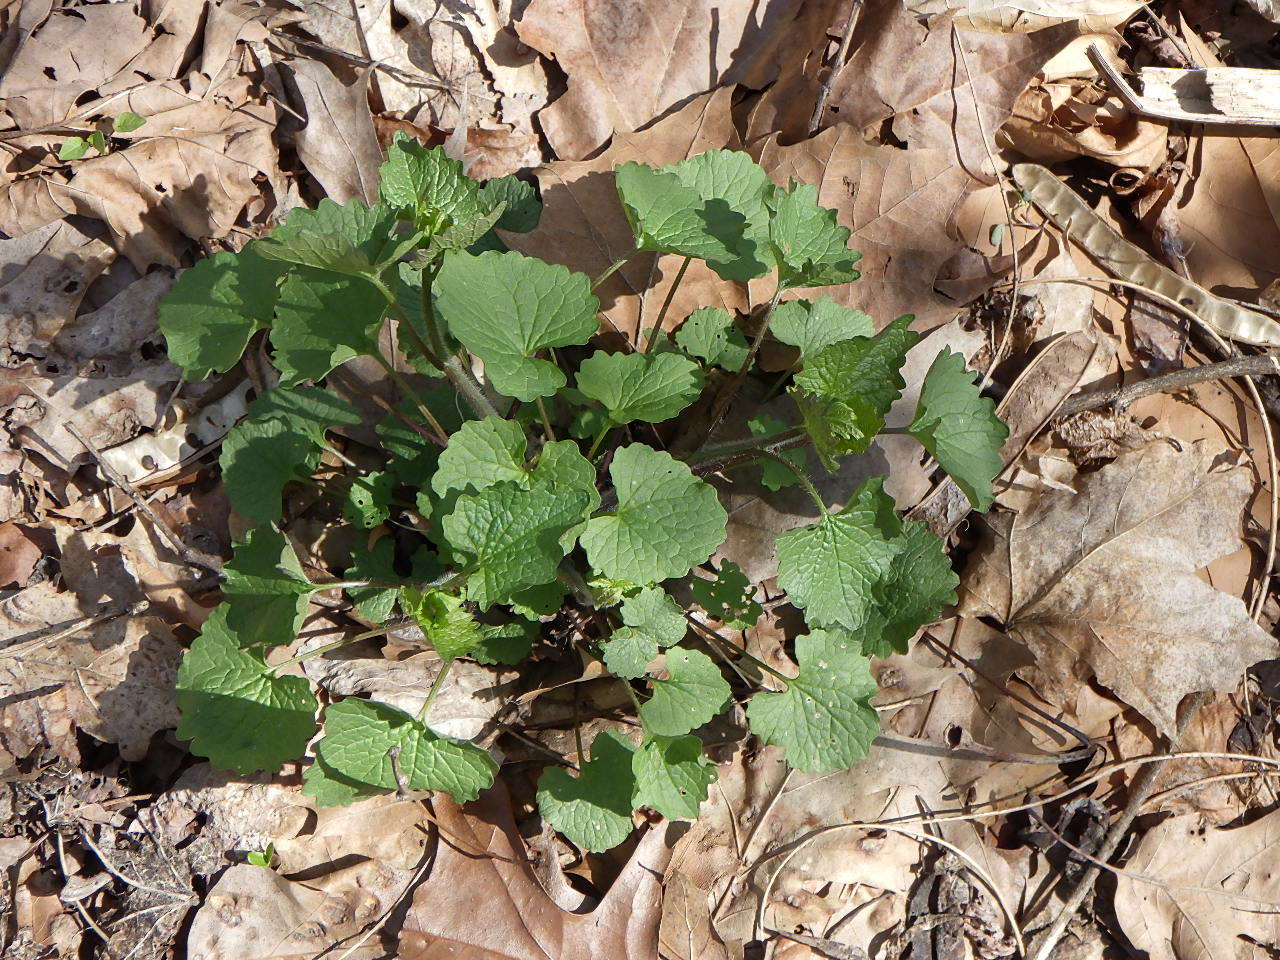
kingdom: Plantae
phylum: Tracheophyta
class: Magnoliopsida
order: Brassicales
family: Brassicaceae
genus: Alliaria
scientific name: Alliaria petiolata
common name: Garlic mustard
